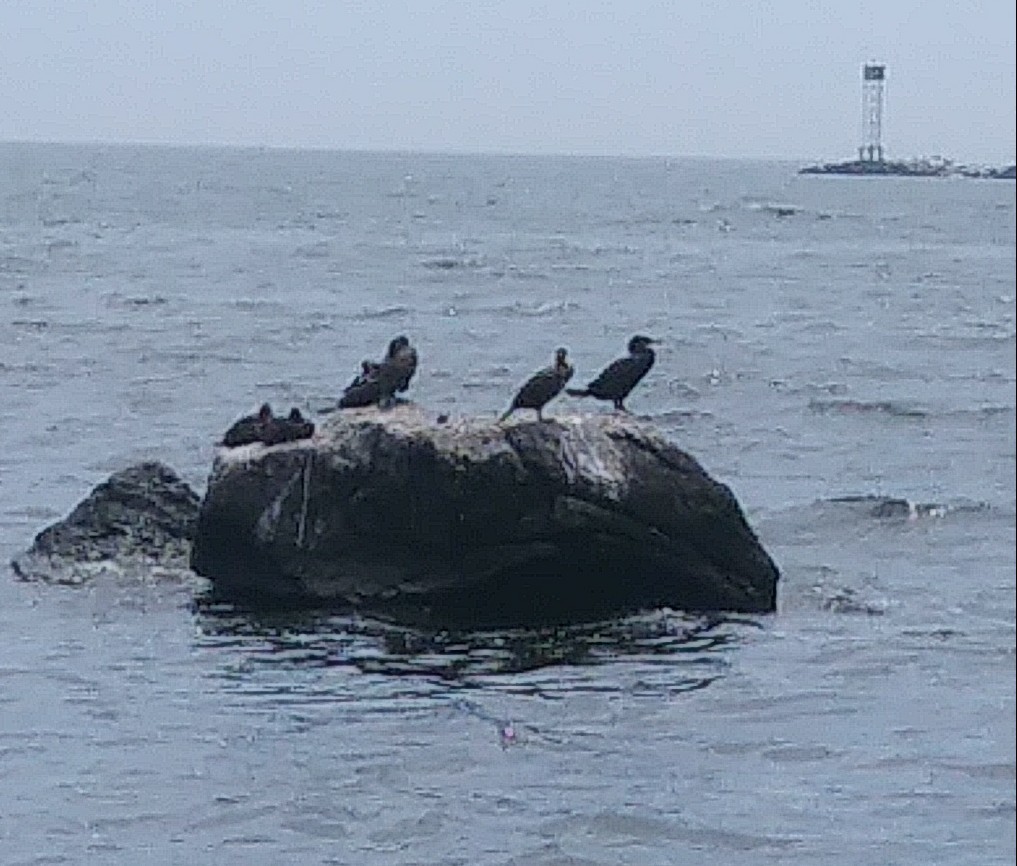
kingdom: Animalia
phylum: Chordata
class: Aves
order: Suliformes
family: Phalacrocoracidae
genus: Phalacrocorax
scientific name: Phalacrocorax auritus
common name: Double-crested cormorant
